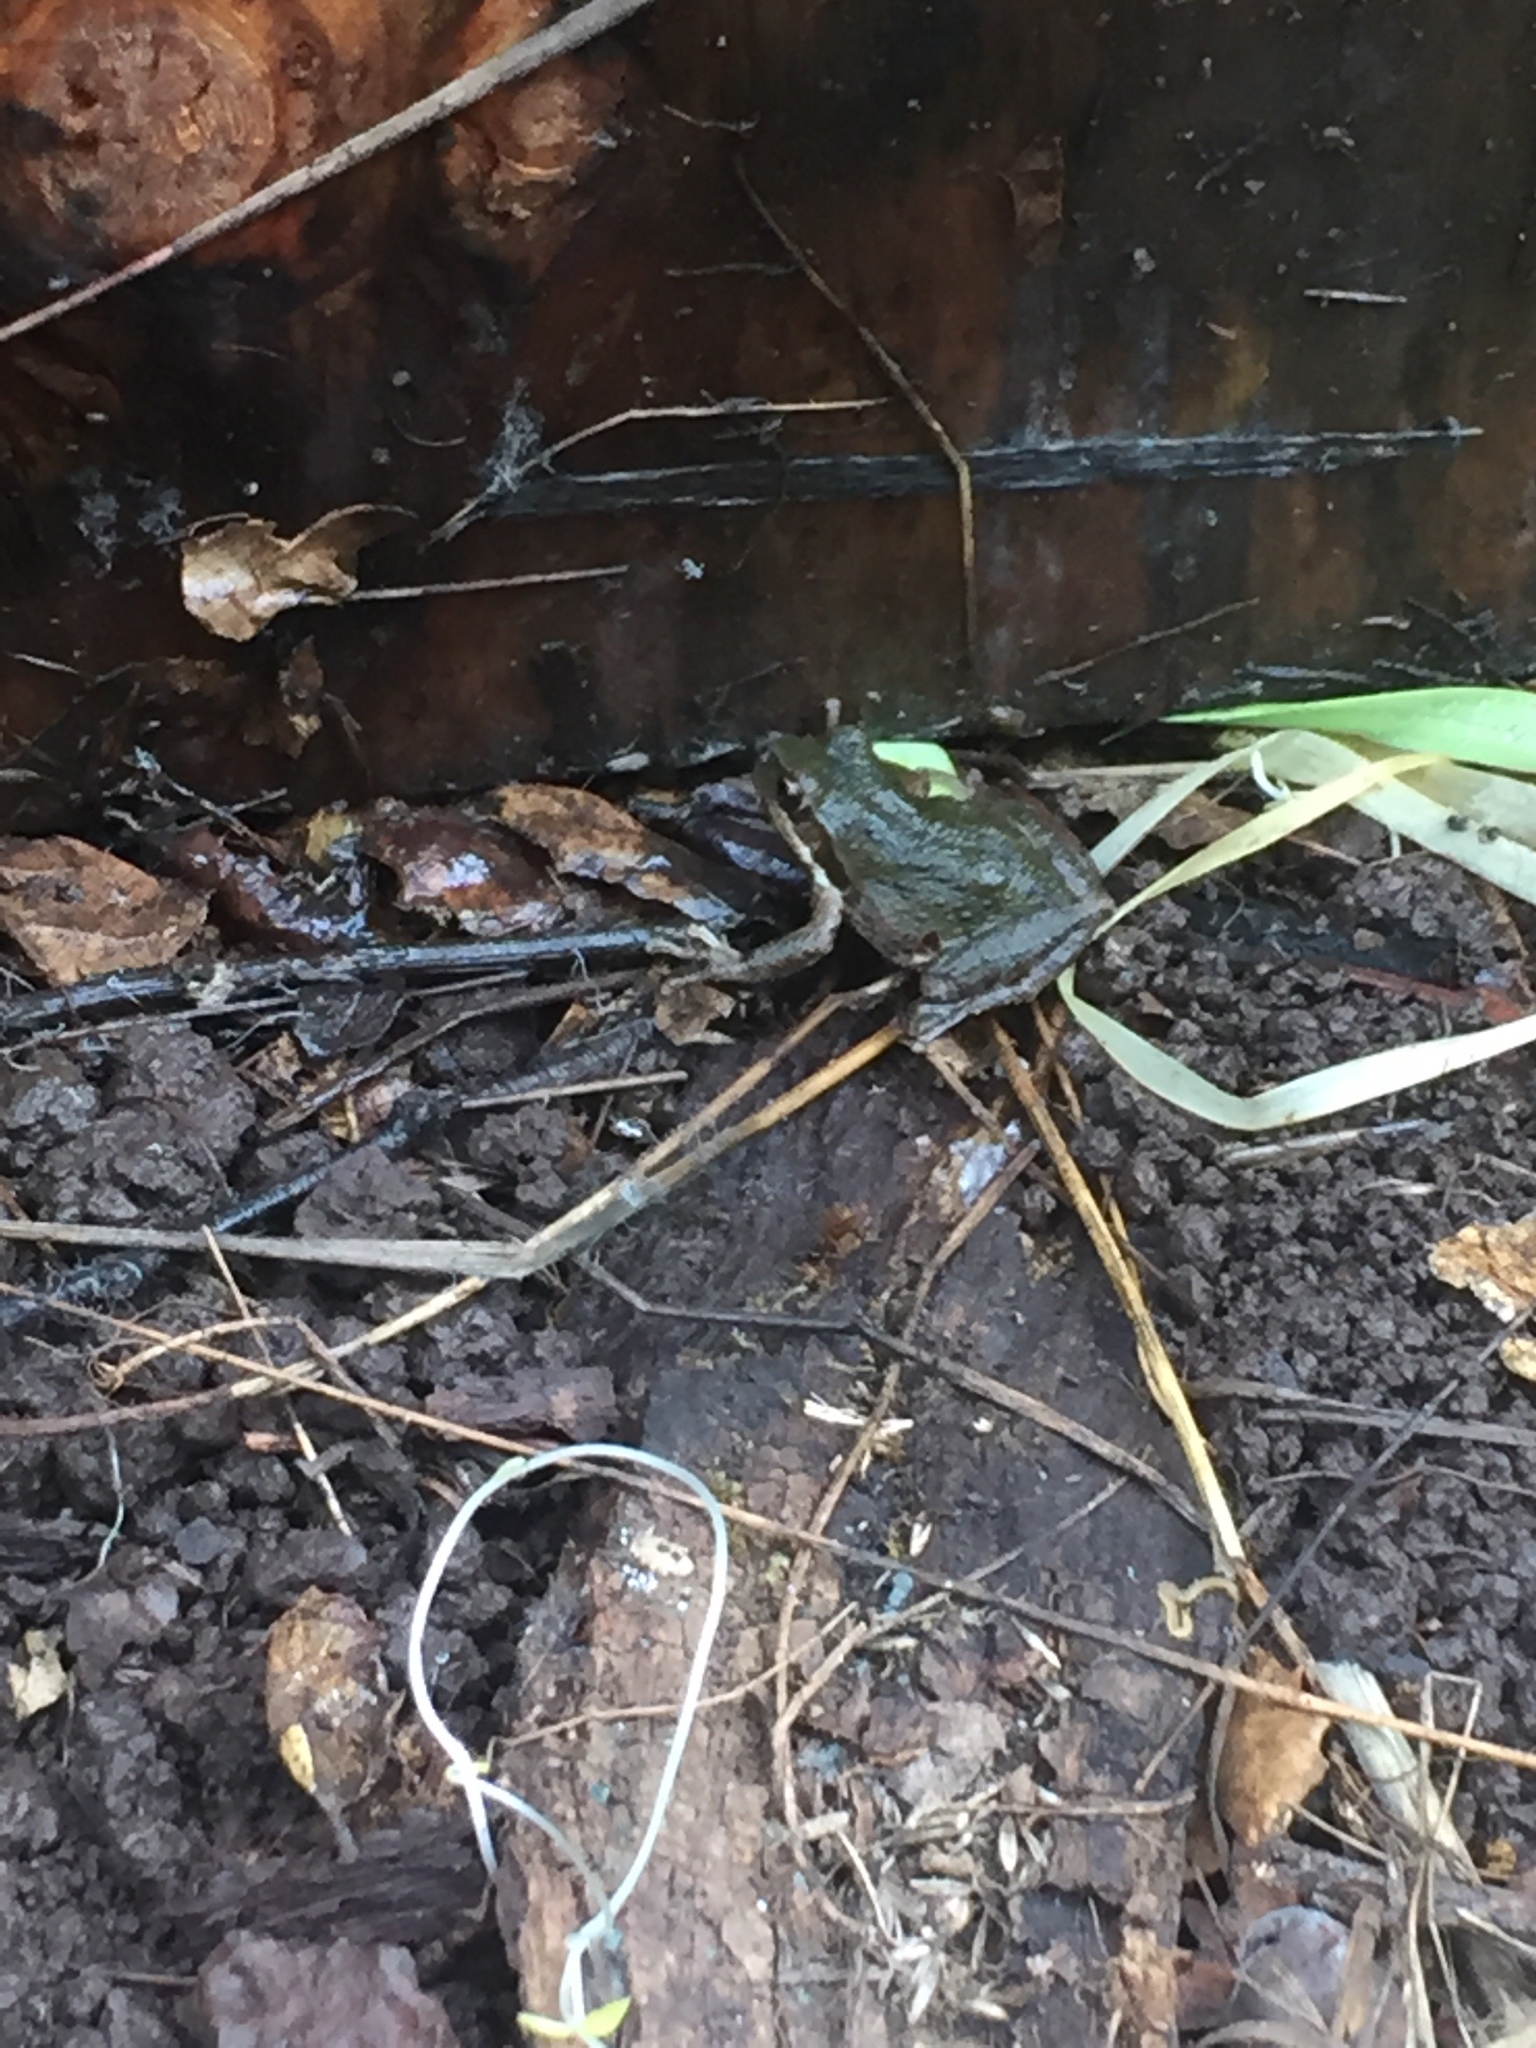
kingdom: Animalia
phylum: Chordata
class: Amphibia
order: Anura
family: Hylidae
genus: Pseudacris
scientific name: Pseudacris regilla
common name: Pacific chorus frog
